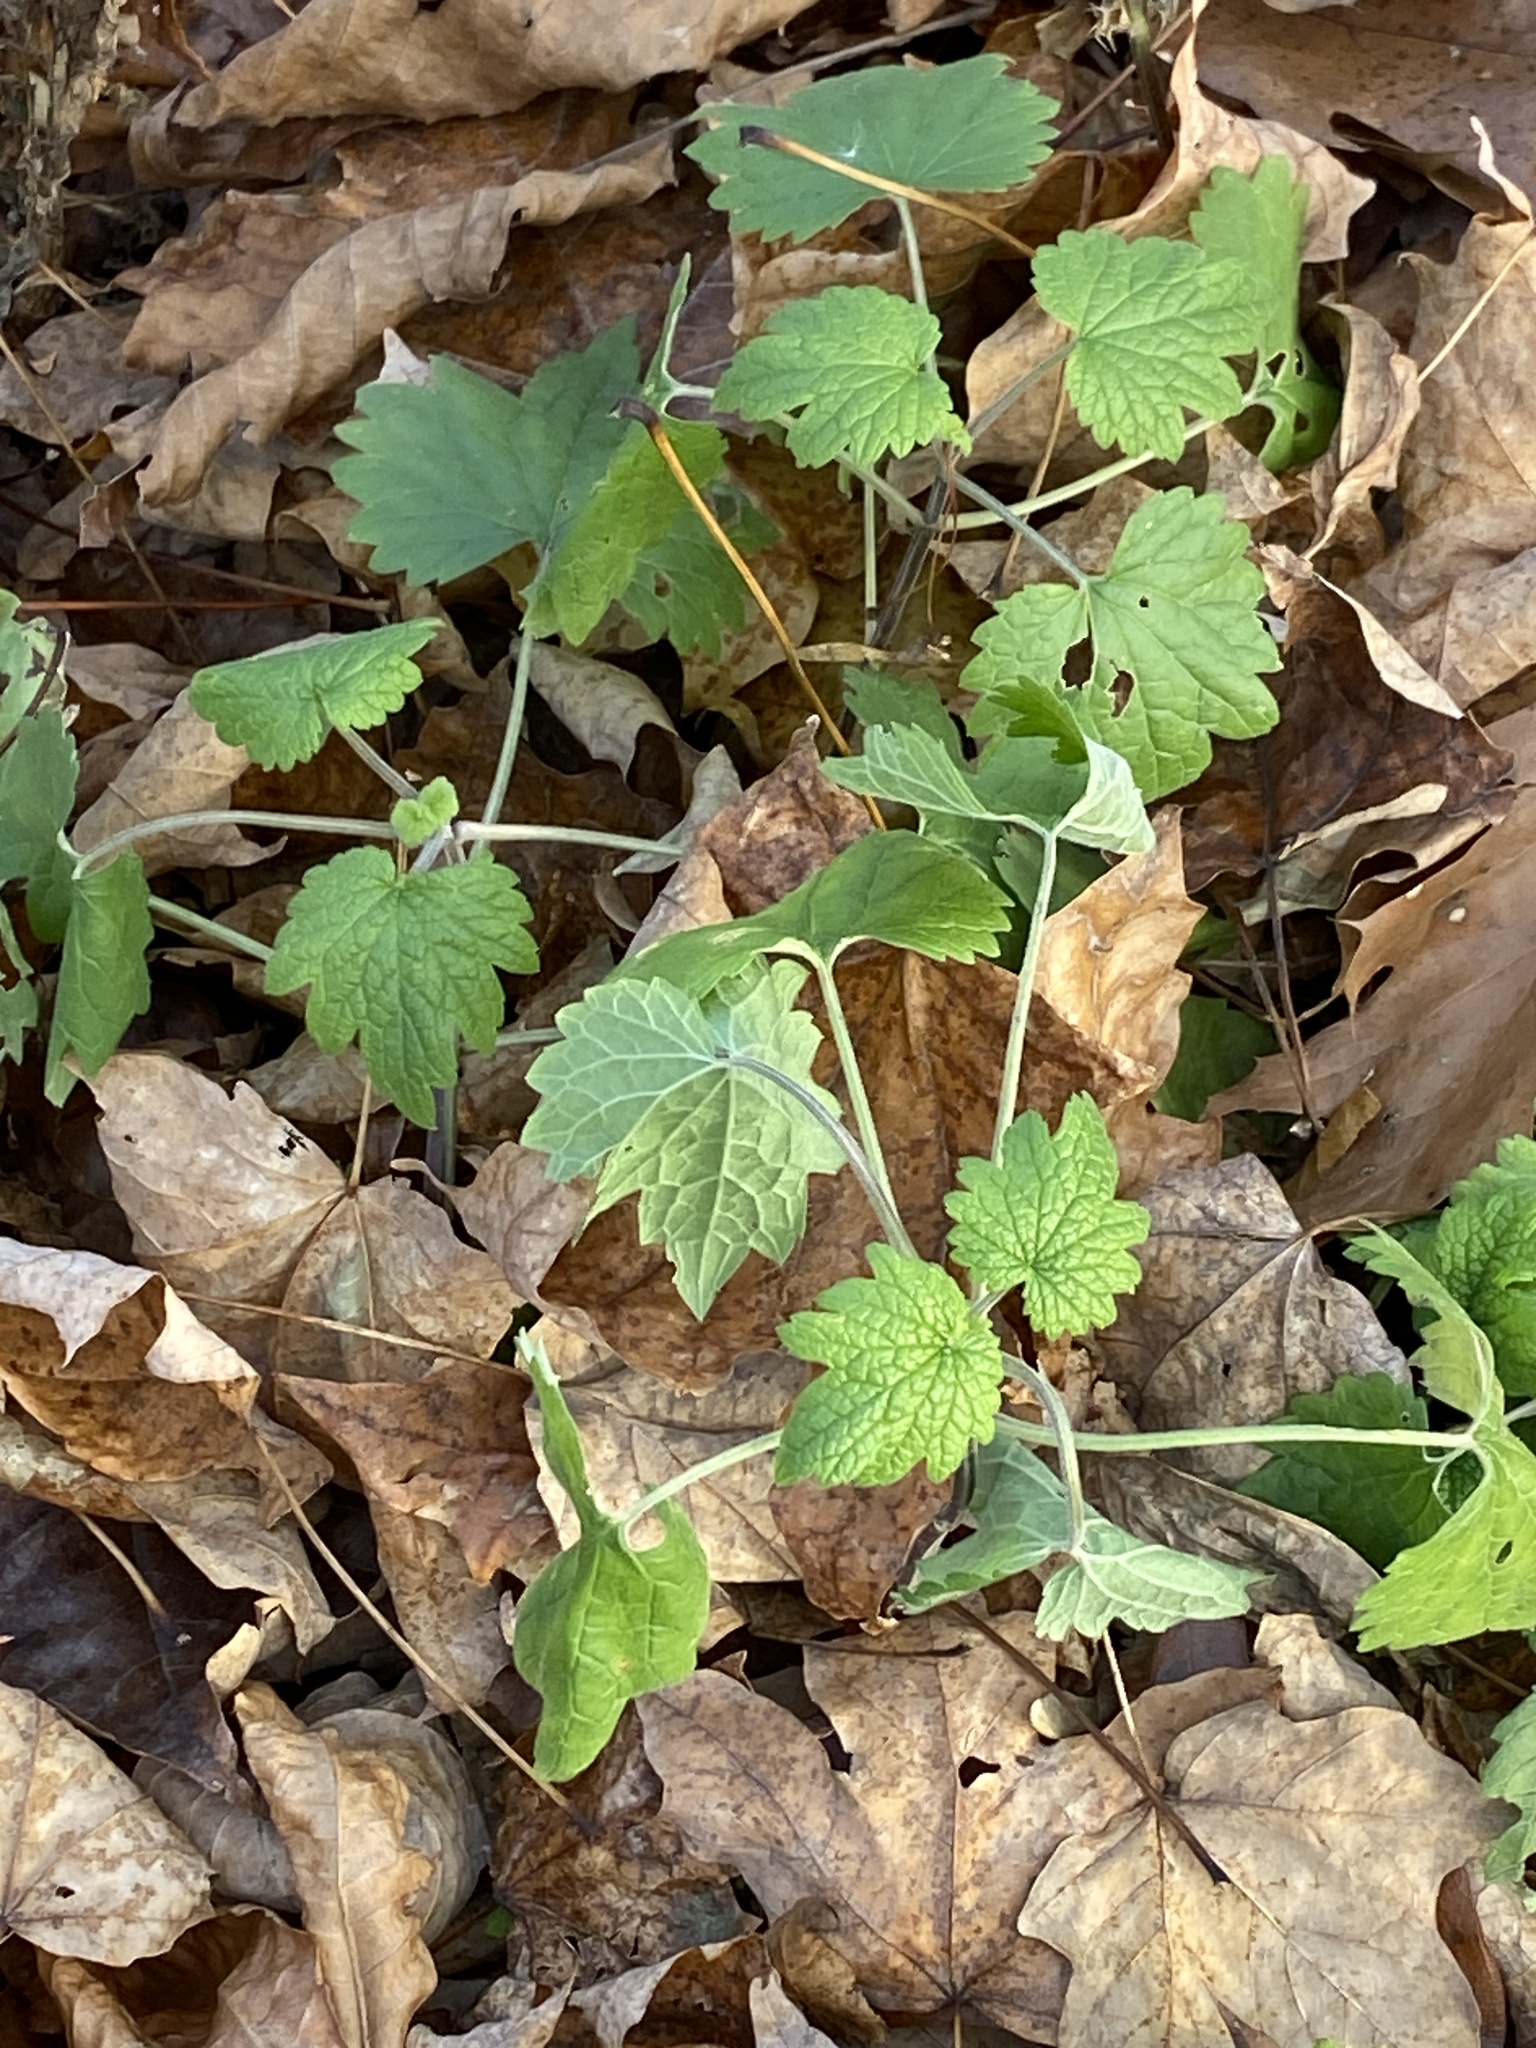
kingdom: Plantae
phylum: Tracheophyta
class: Magnoliopsida
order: Lamiales
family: Lamiaceae
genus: Leonurus
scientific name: Leonurus cardiaca
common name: Motherwort
